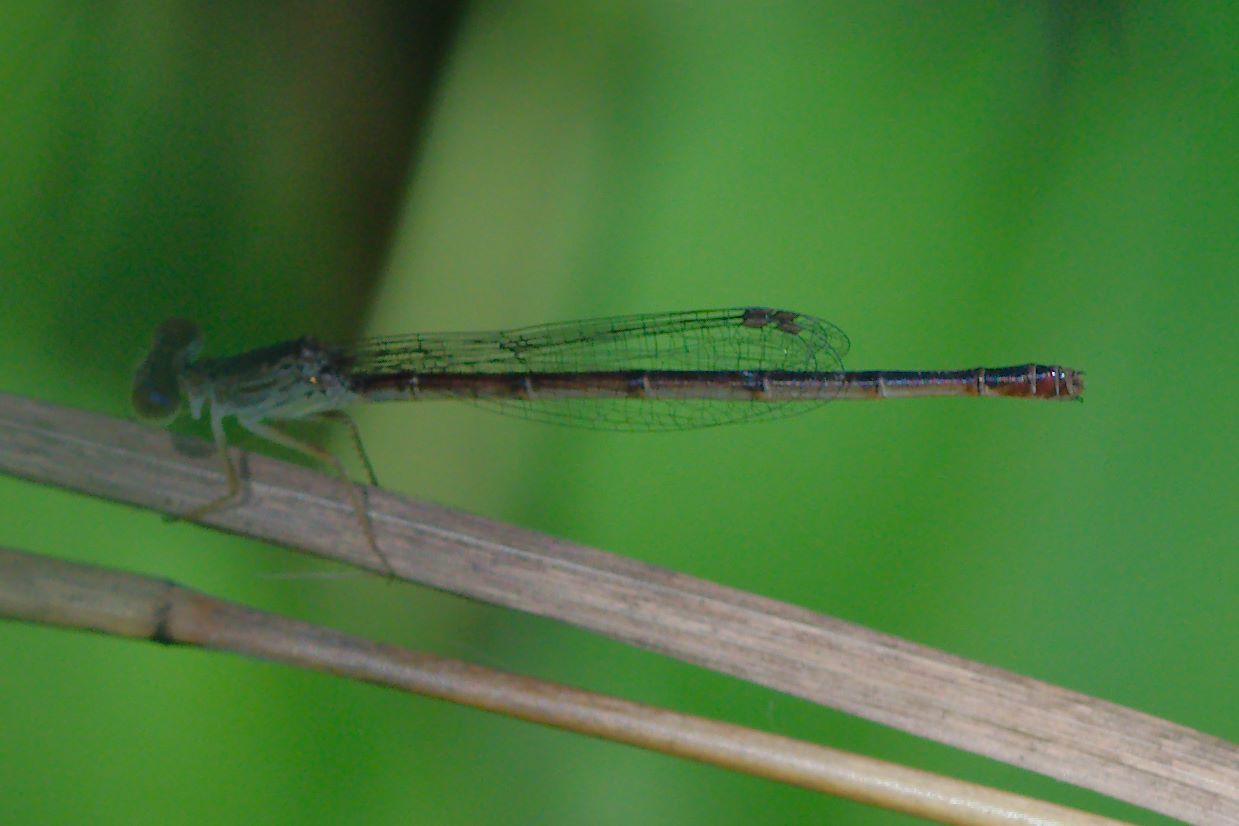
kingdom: Animalia
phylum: Arthropoda
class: Insecta
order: Odonata
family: Coenagrionidae
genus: Telebasis
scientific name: Telebasis byersi
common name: Duckweed firetail
